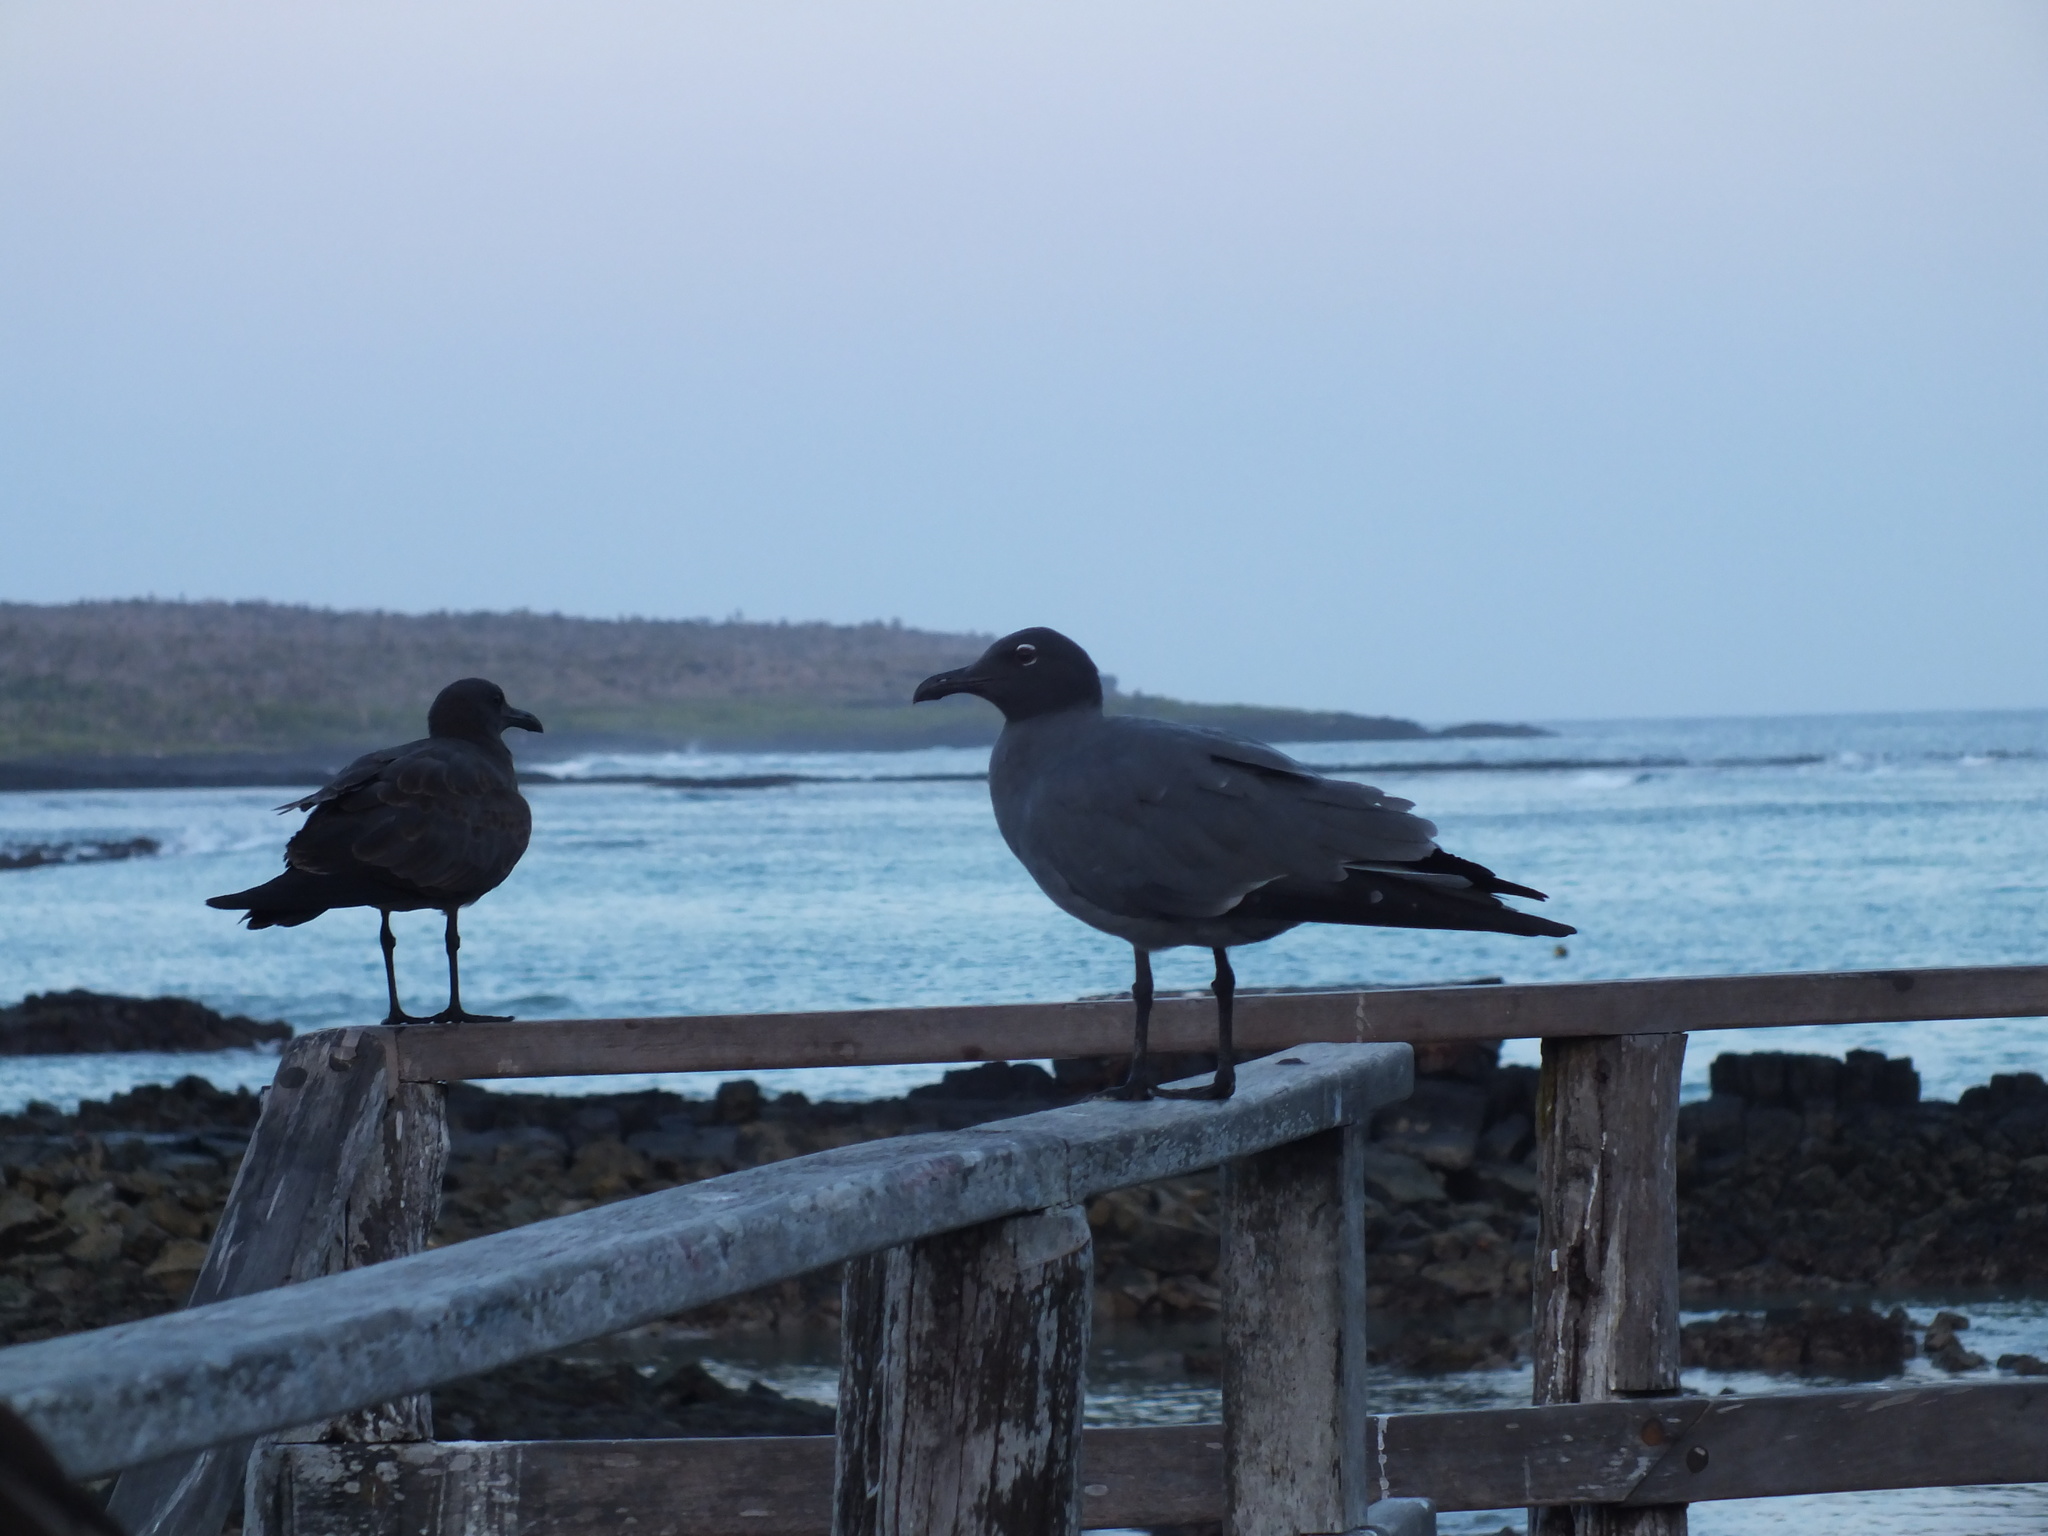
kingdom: Animalia
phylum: Chordata
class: Aves
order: Charadriiformes
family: Laridae
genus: Leucophaeus
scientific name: Leucophaeus fuliginosus
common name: Lava gull
